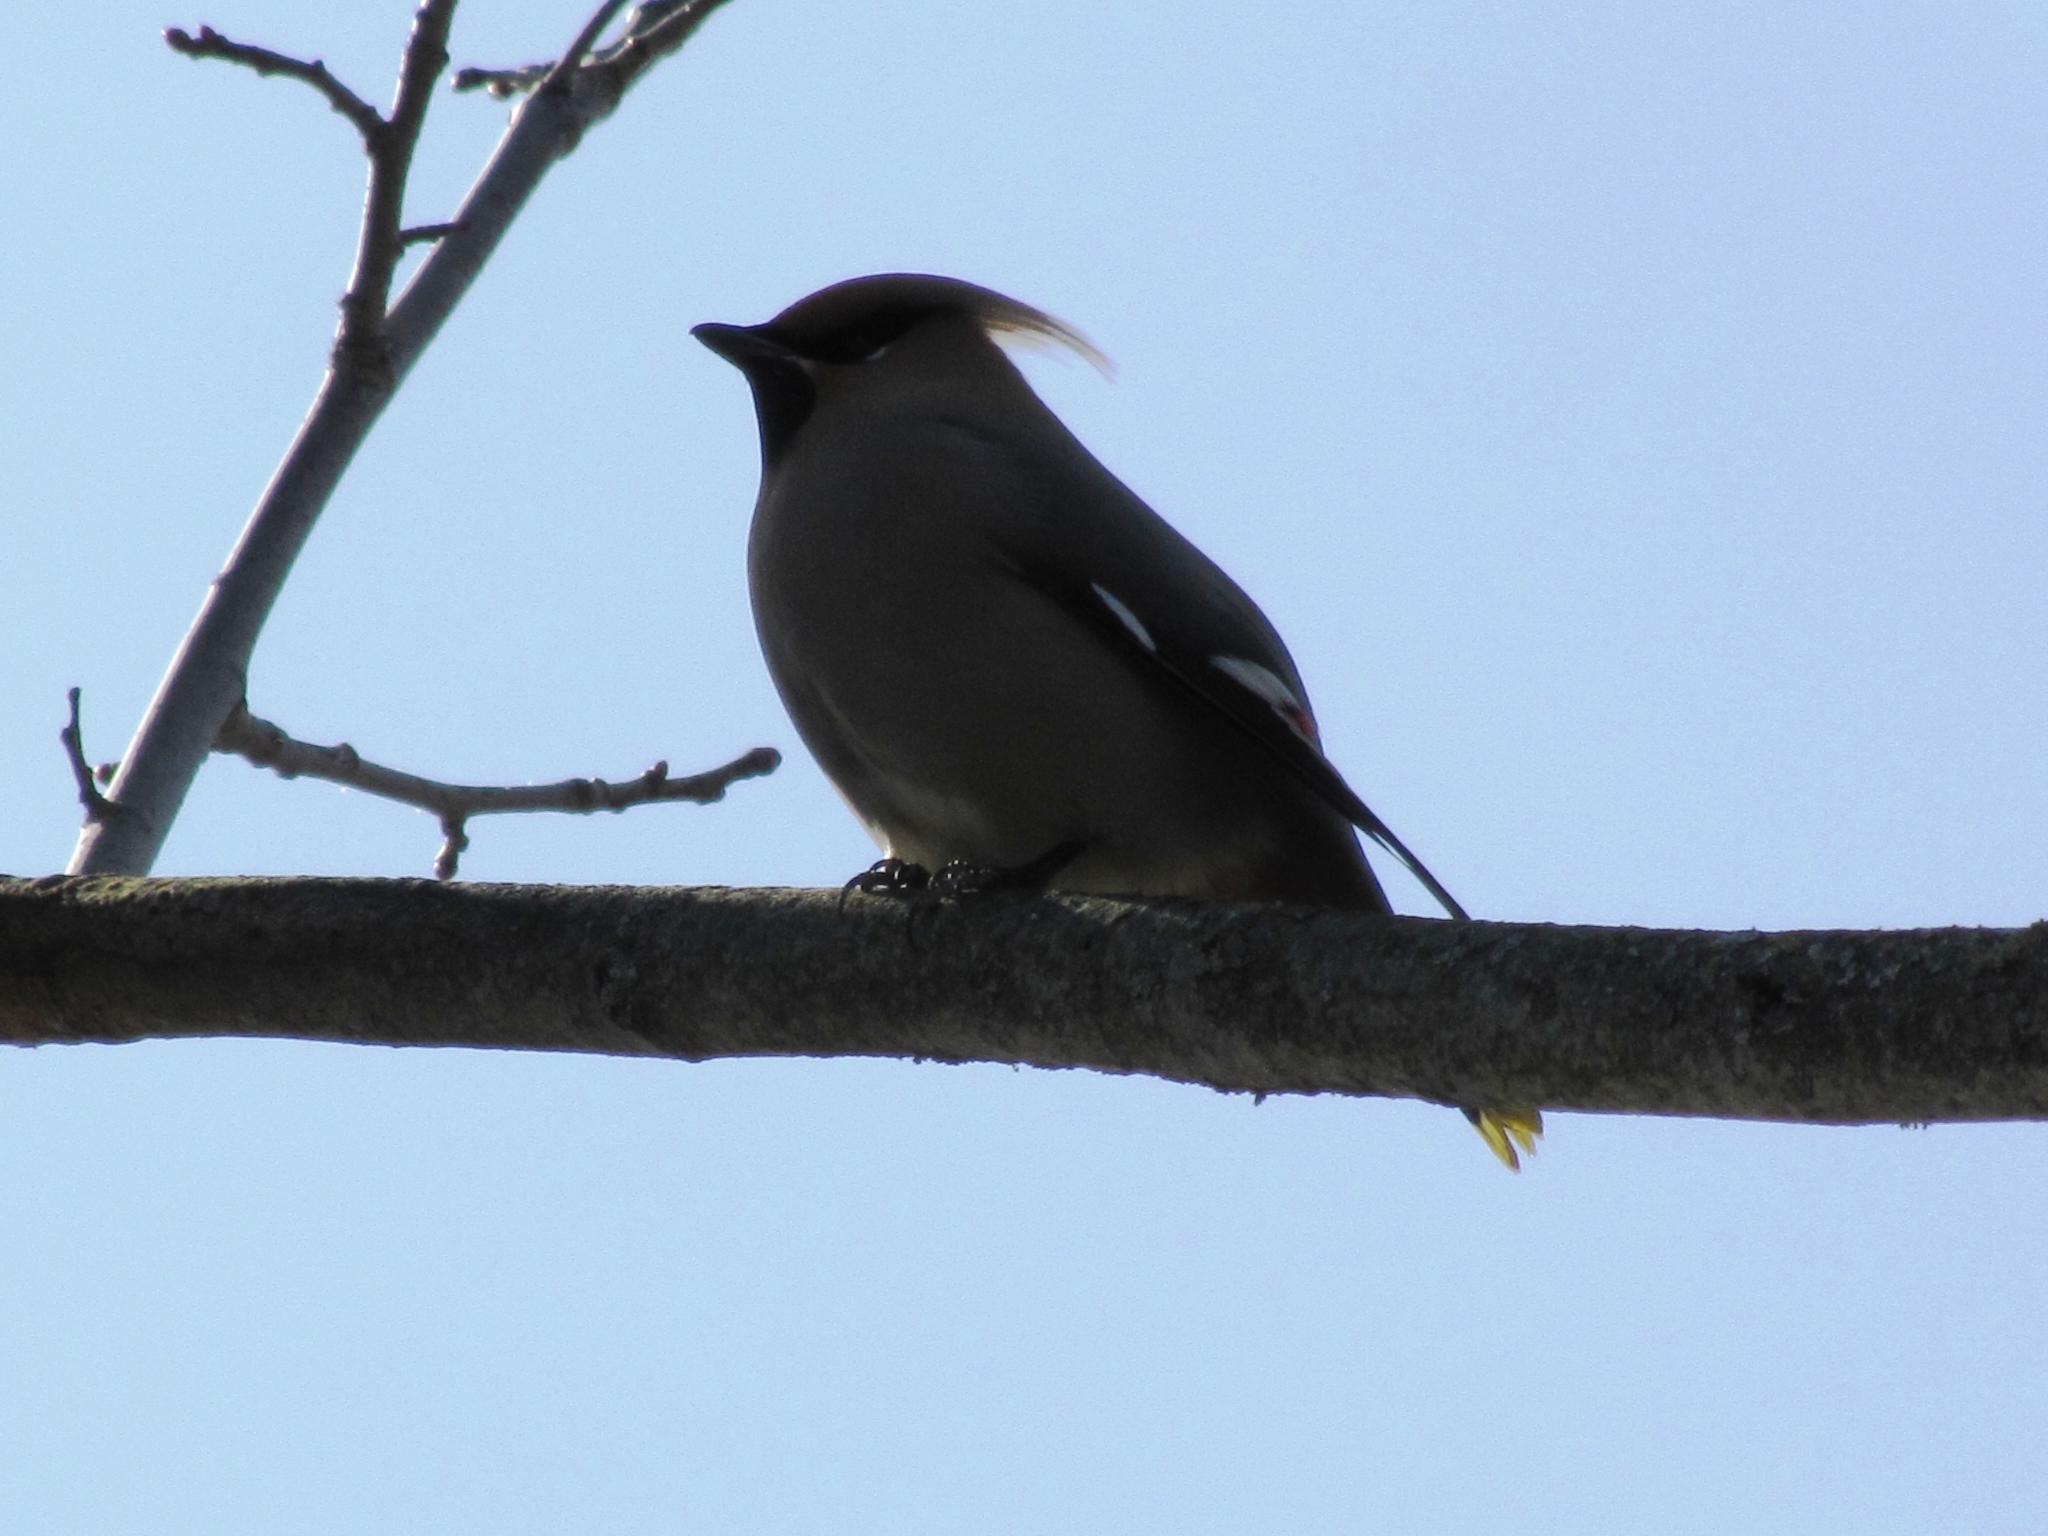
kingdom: Animalia
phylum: Chordata
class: Aves
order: Passeriformes
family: Bombycillidae
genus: Bombycilla
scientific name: Bombycilla garrulus
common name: Bohemian waxwing
